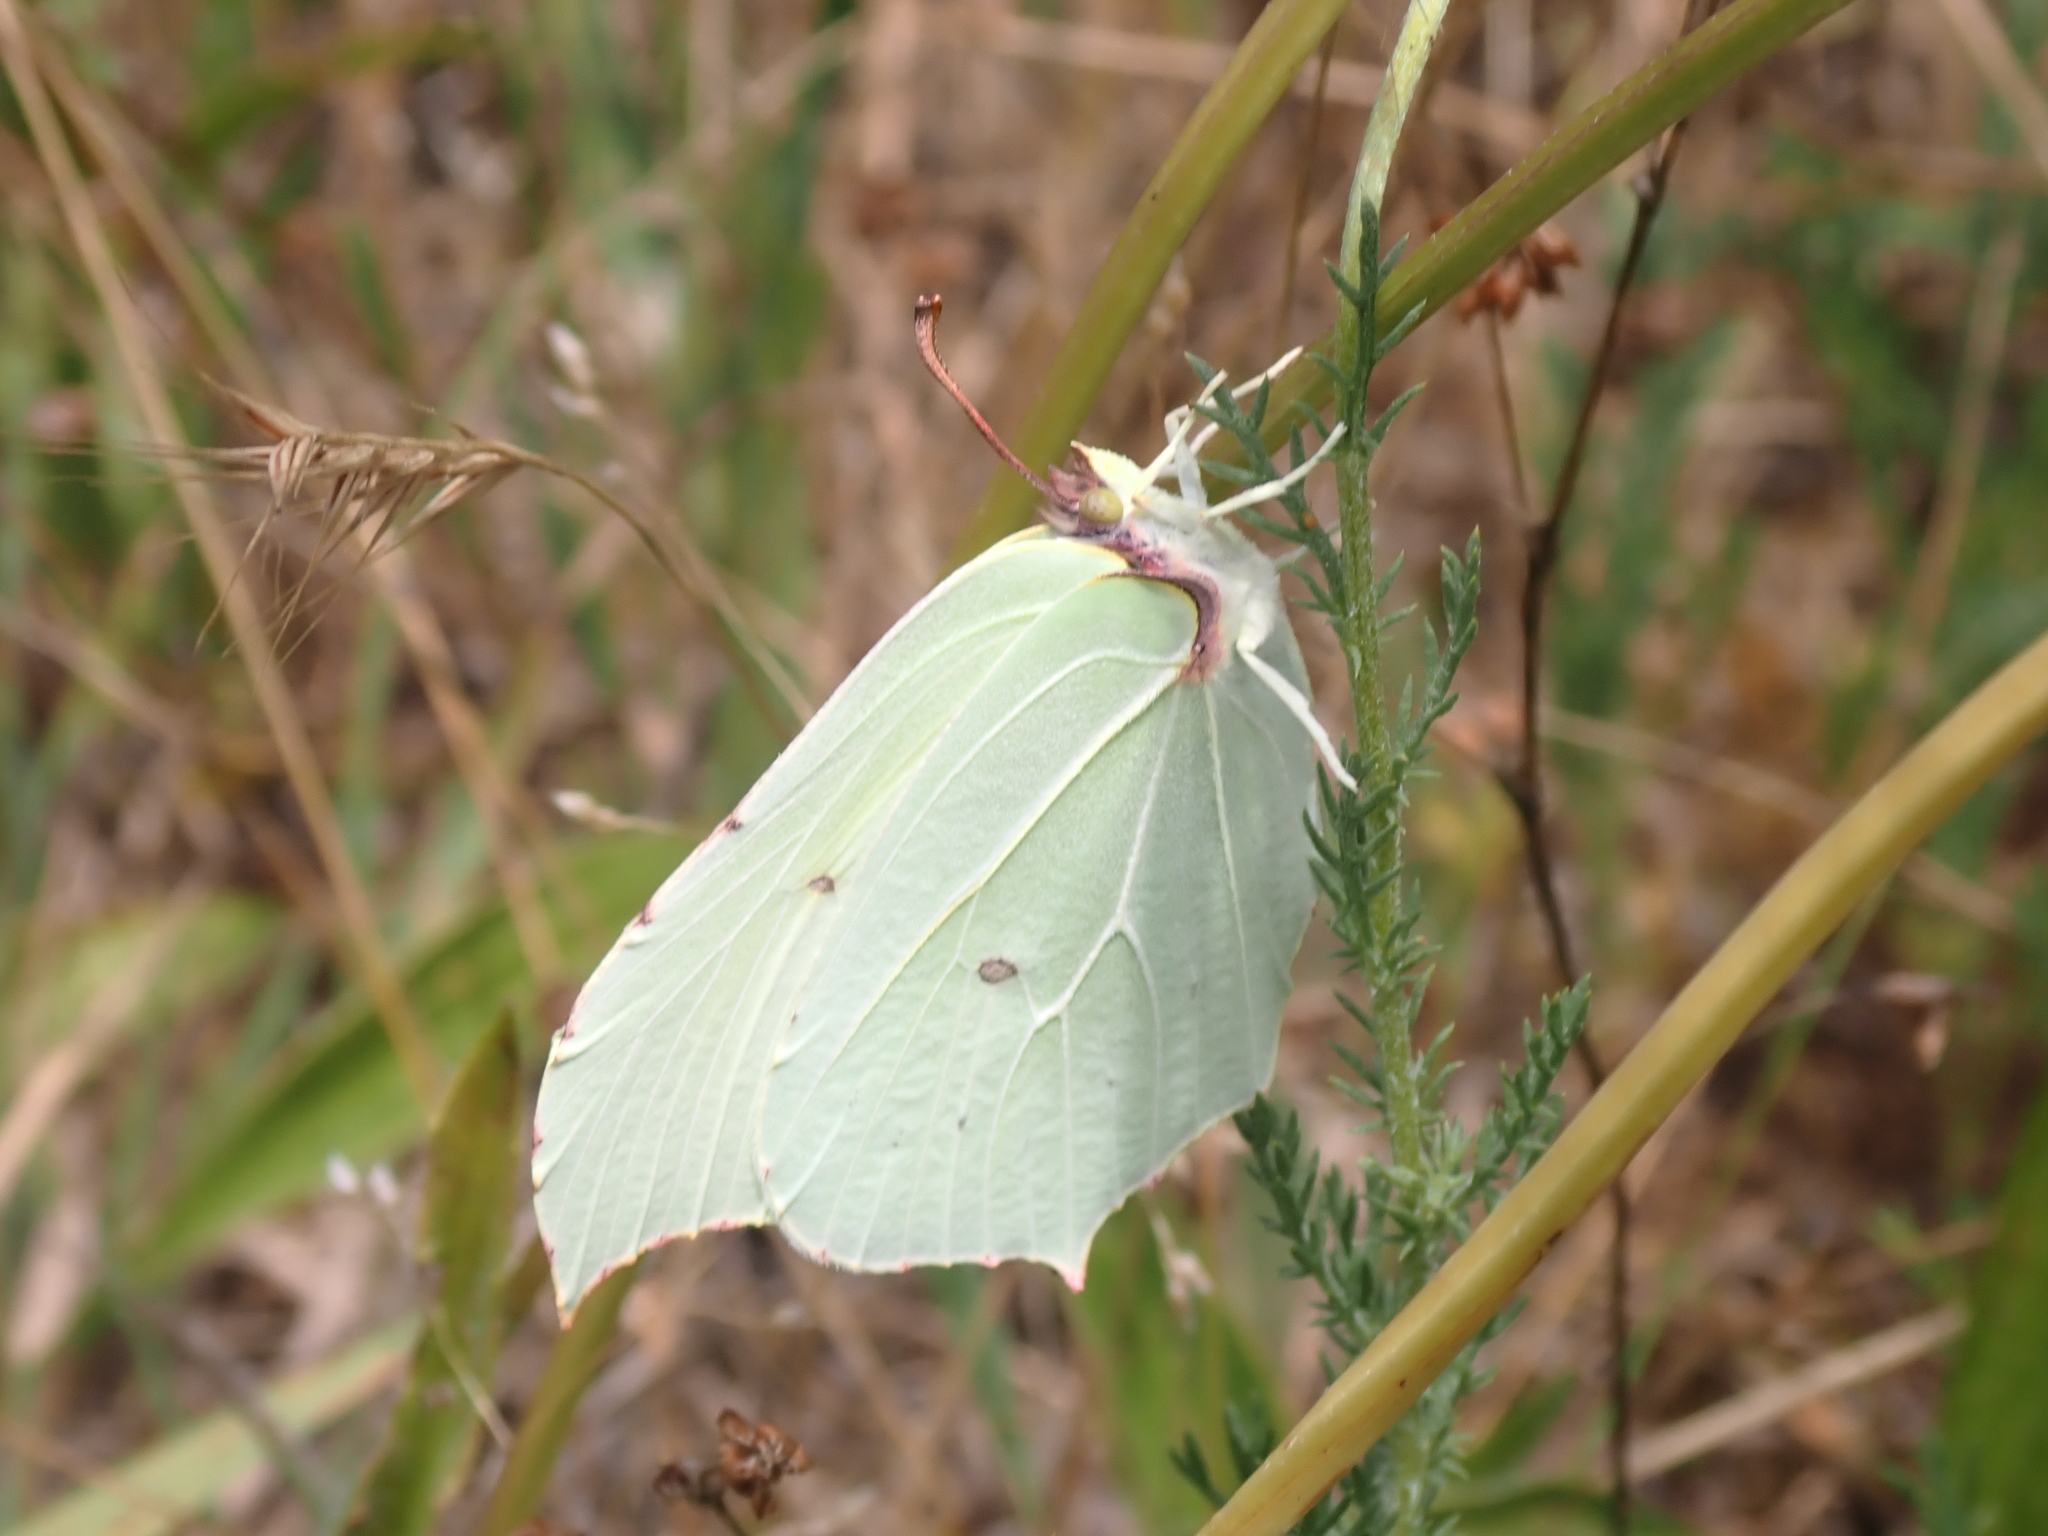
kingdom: Animalia
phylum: Arthropoda
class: Insecta
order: Lepidoptera
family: Pieridae
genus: Gonepteryx
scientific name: Gonepteryx rhamni
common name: Brimstone
